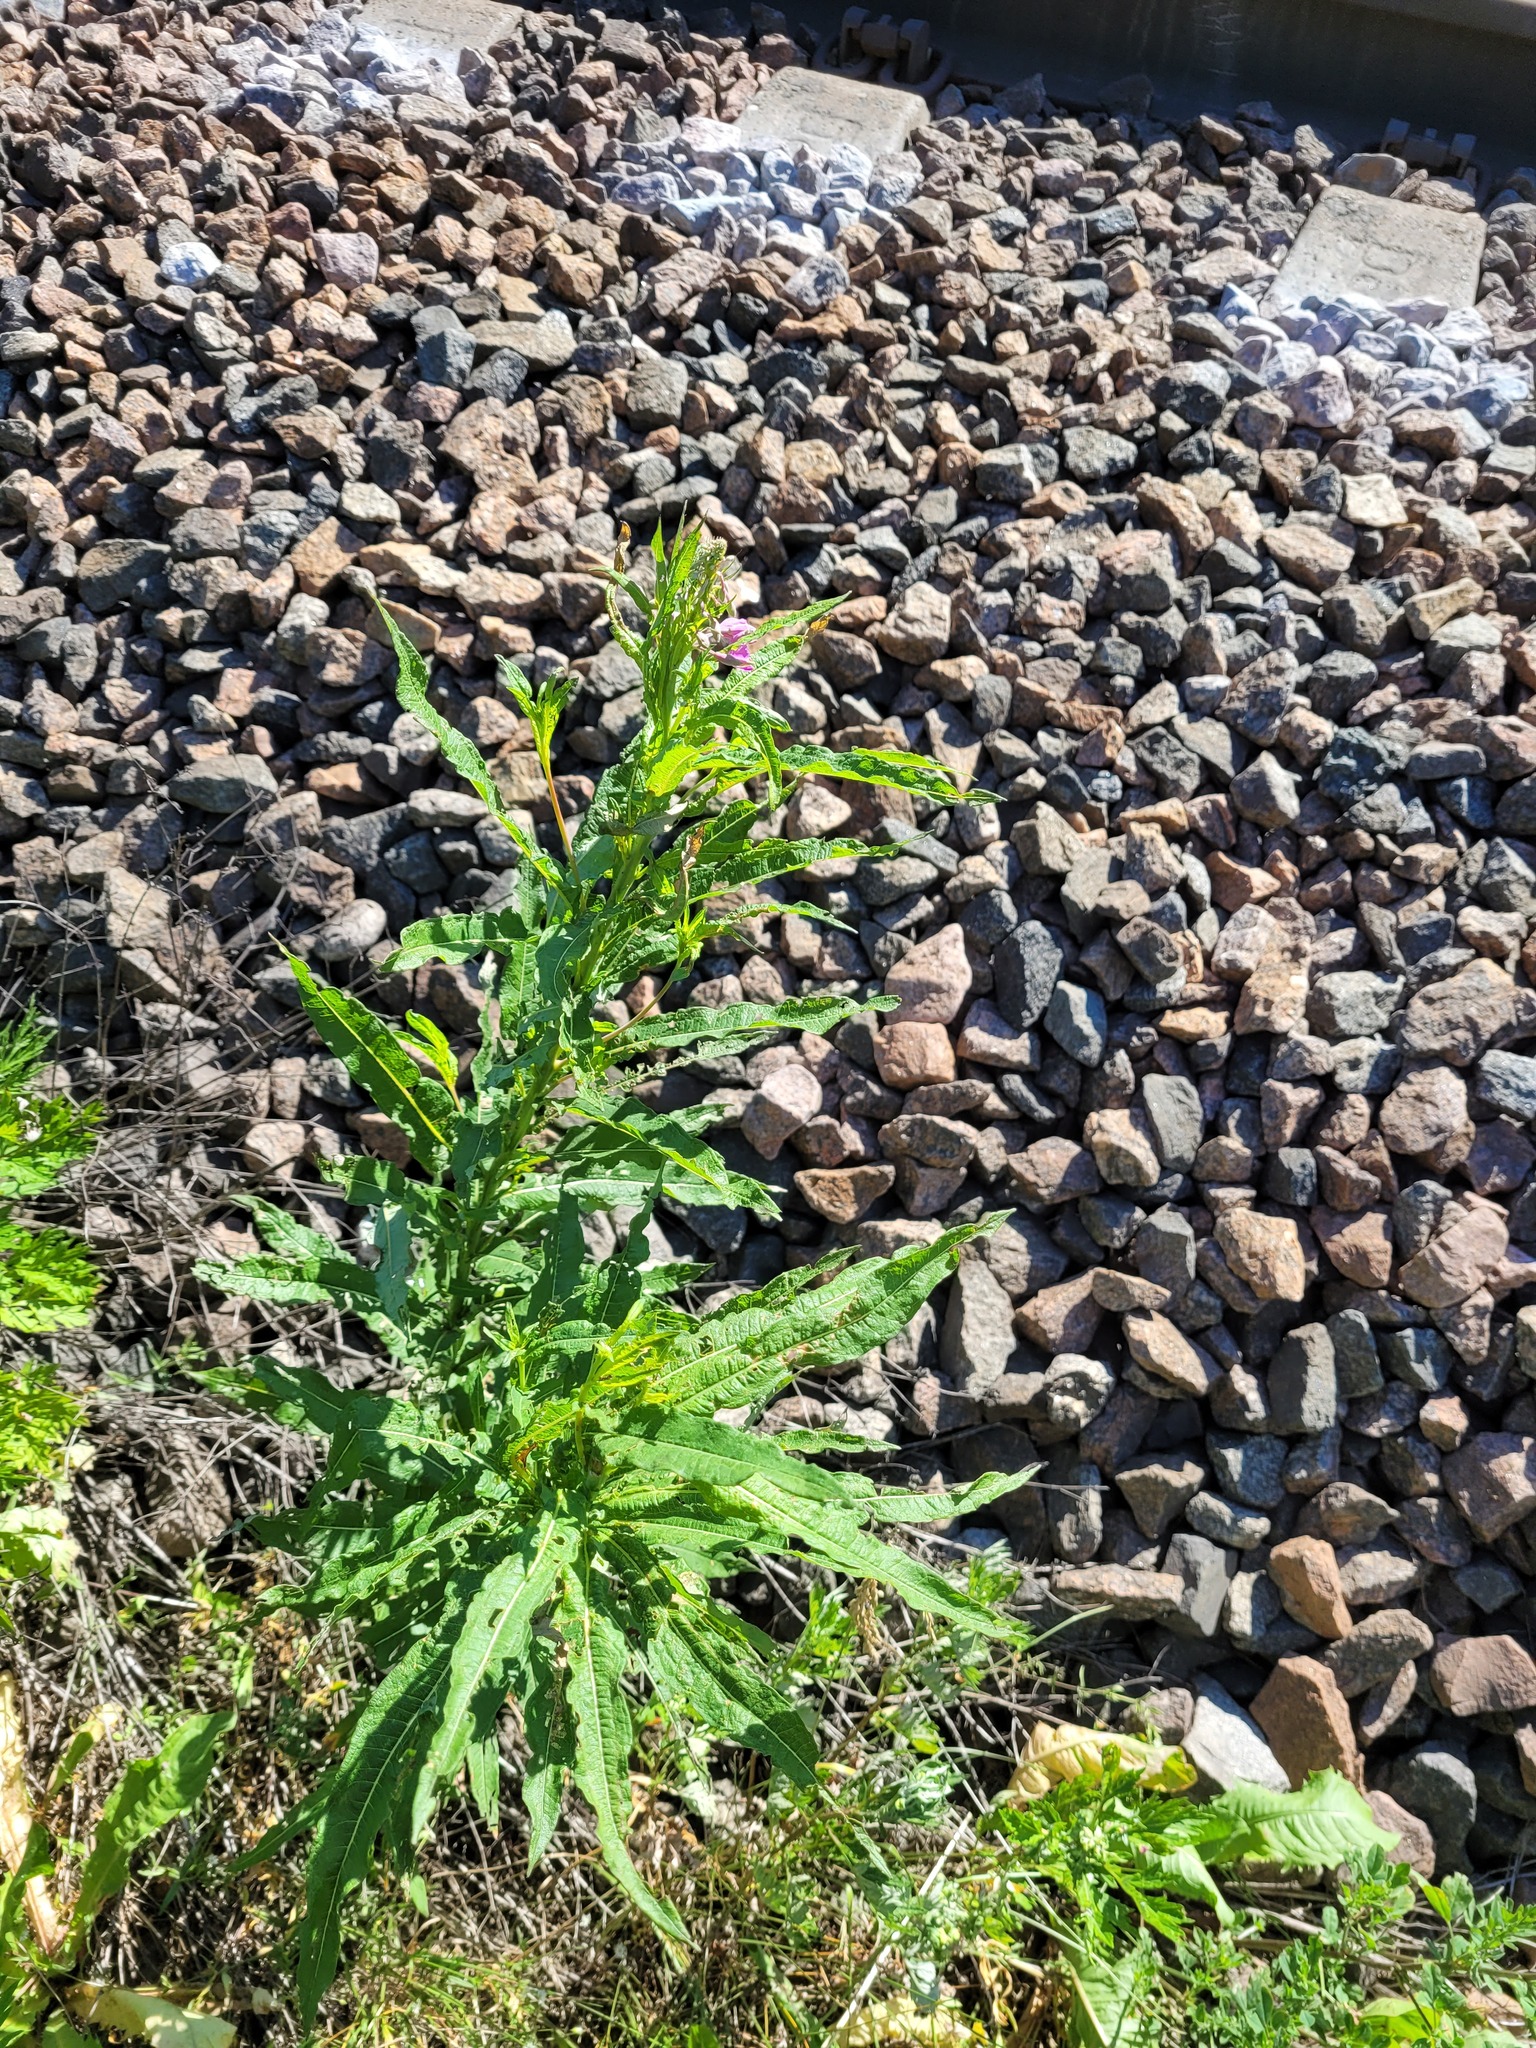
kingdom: Plantae
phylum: Tracheophyta
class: Magnoliopsida
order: Myrtales
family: Onagraceae
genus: Chamaenerion
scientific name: Chamaenerion angustifolium
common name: Fireweed
